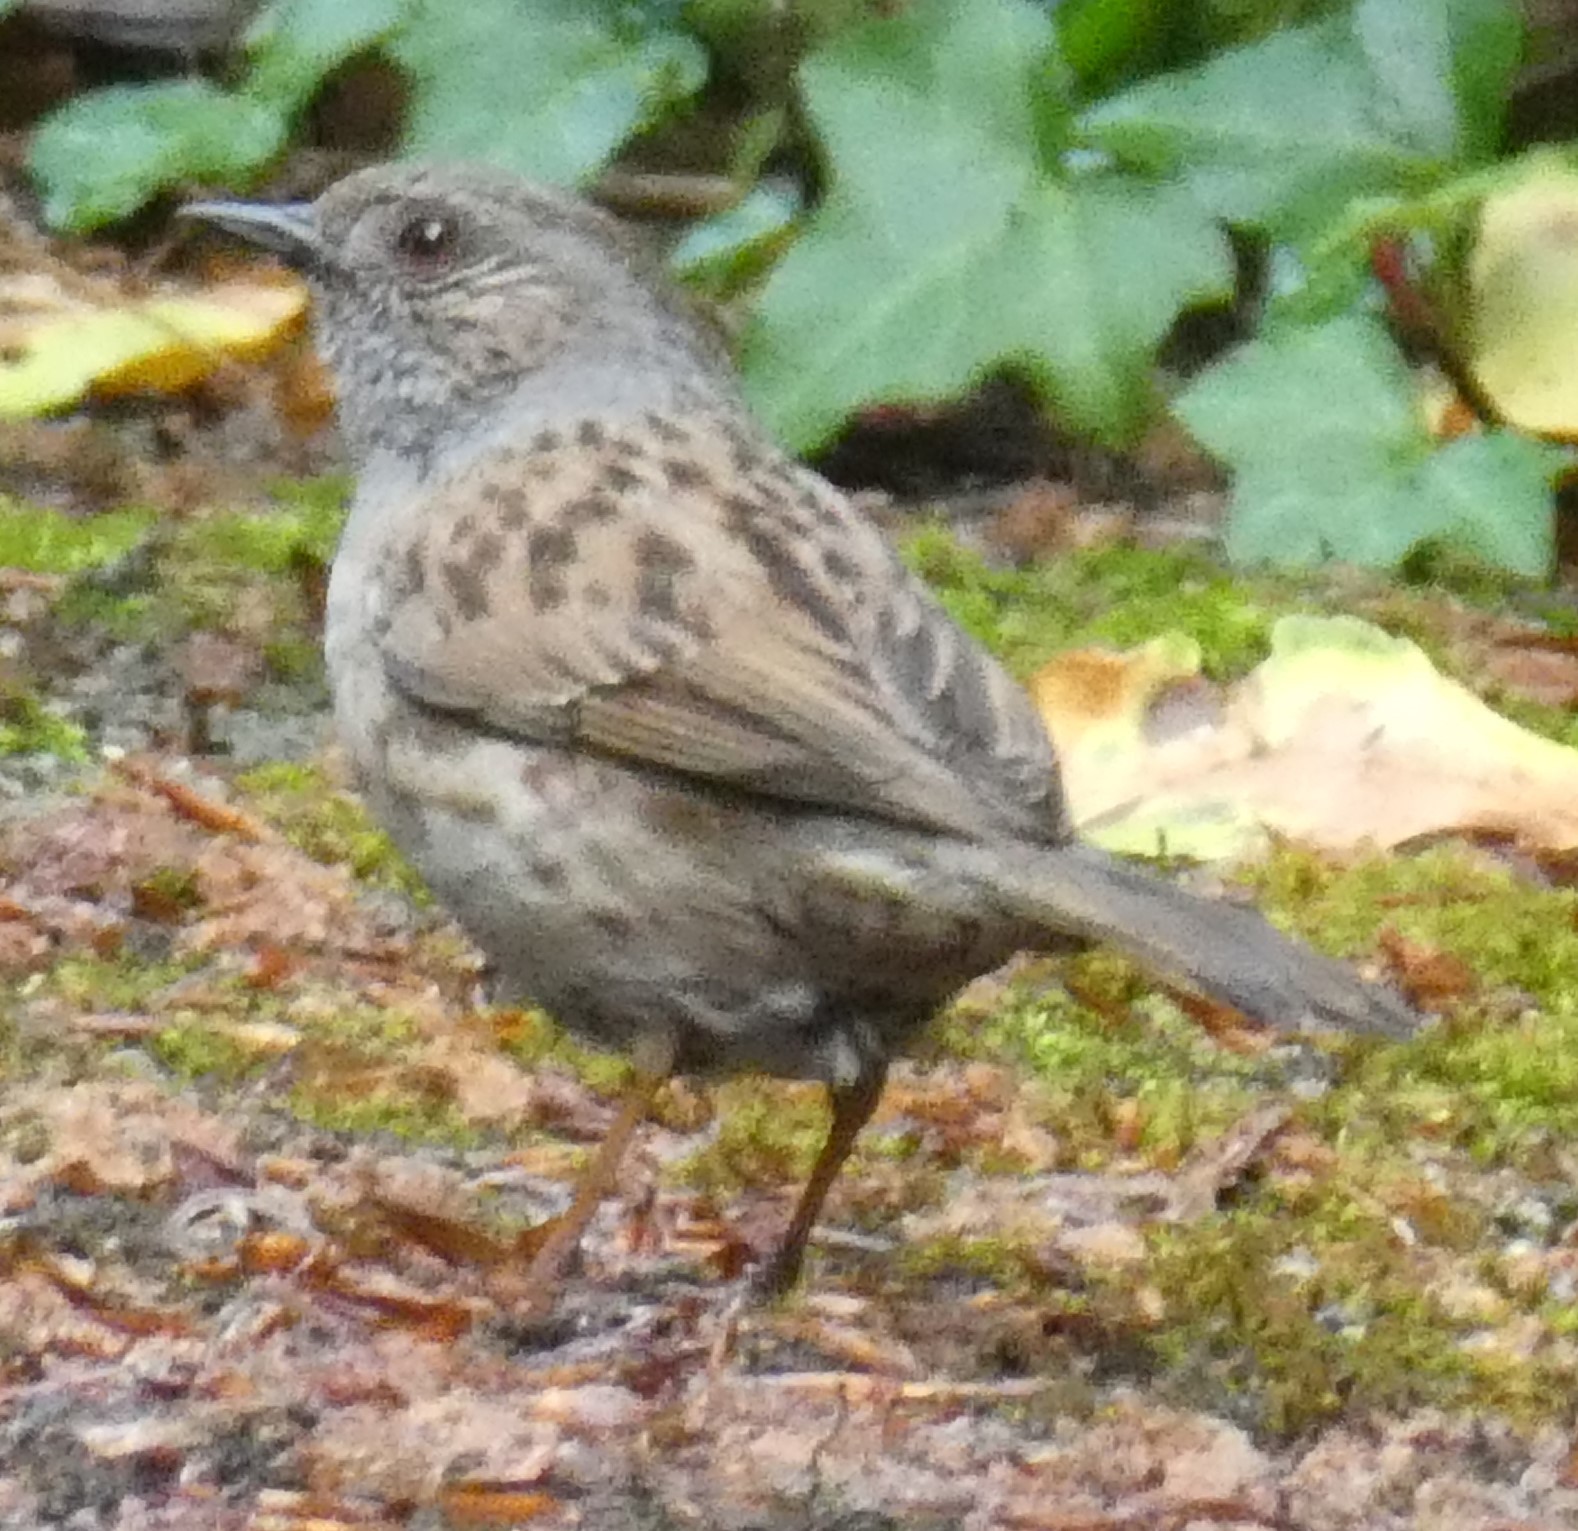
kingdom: Animalia
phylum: Chordata
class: Aves
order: Passeriformes
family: Prunellidae
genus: Prunella
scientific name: Prunella modularis
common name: Dunnock
